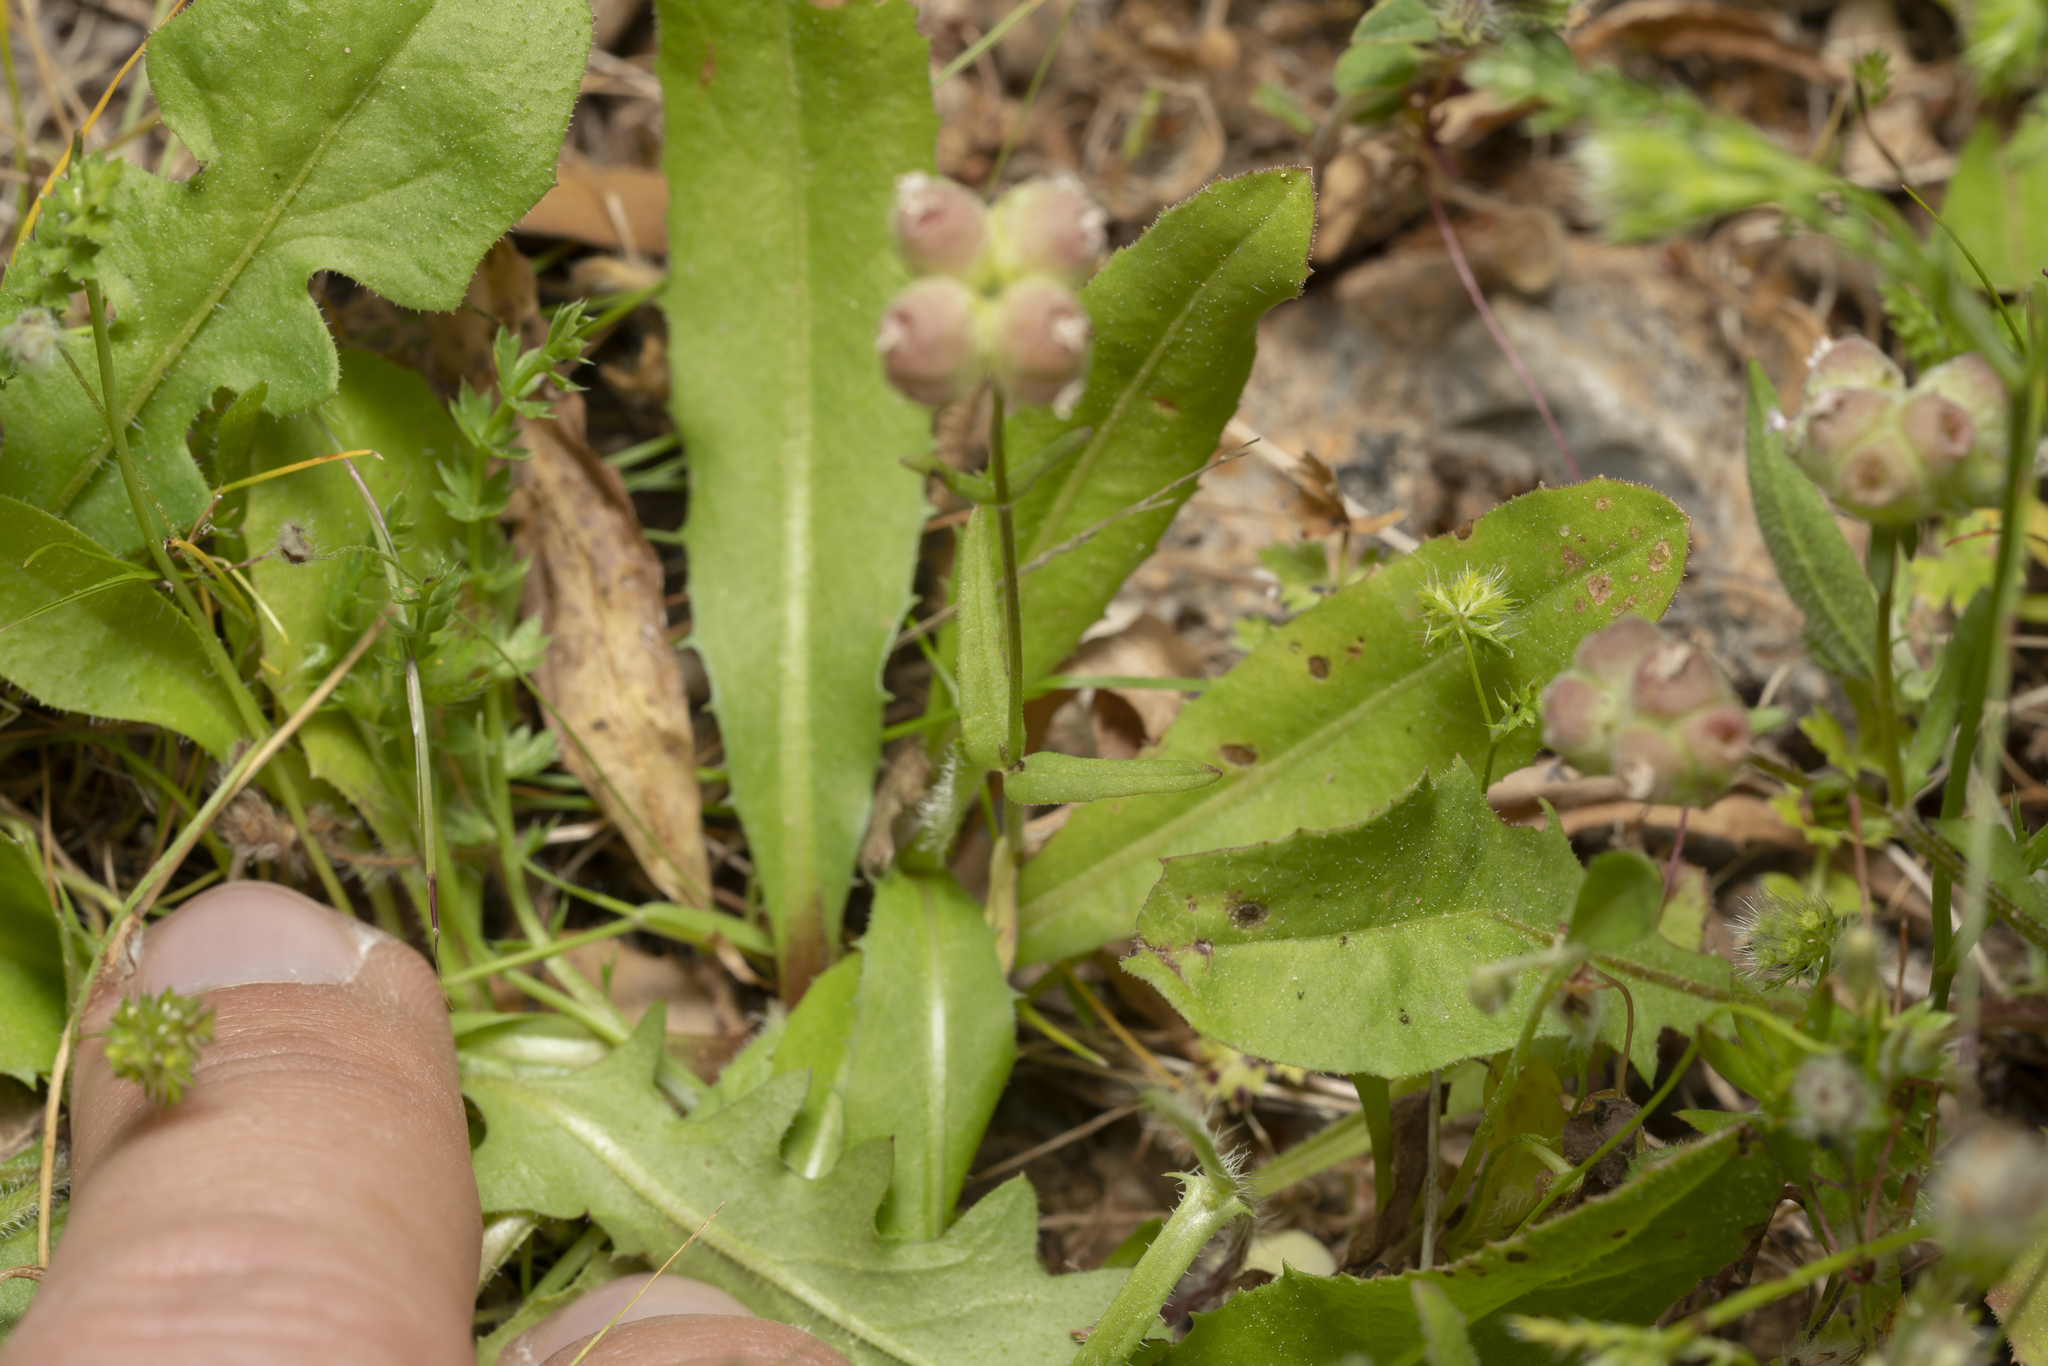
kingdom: Plantae
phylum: Tracheophyta
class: Magnoliopsida
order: Dipsacales
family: Caprifoliaceae
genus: Valerianella
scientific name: Valerianella vesicaria
